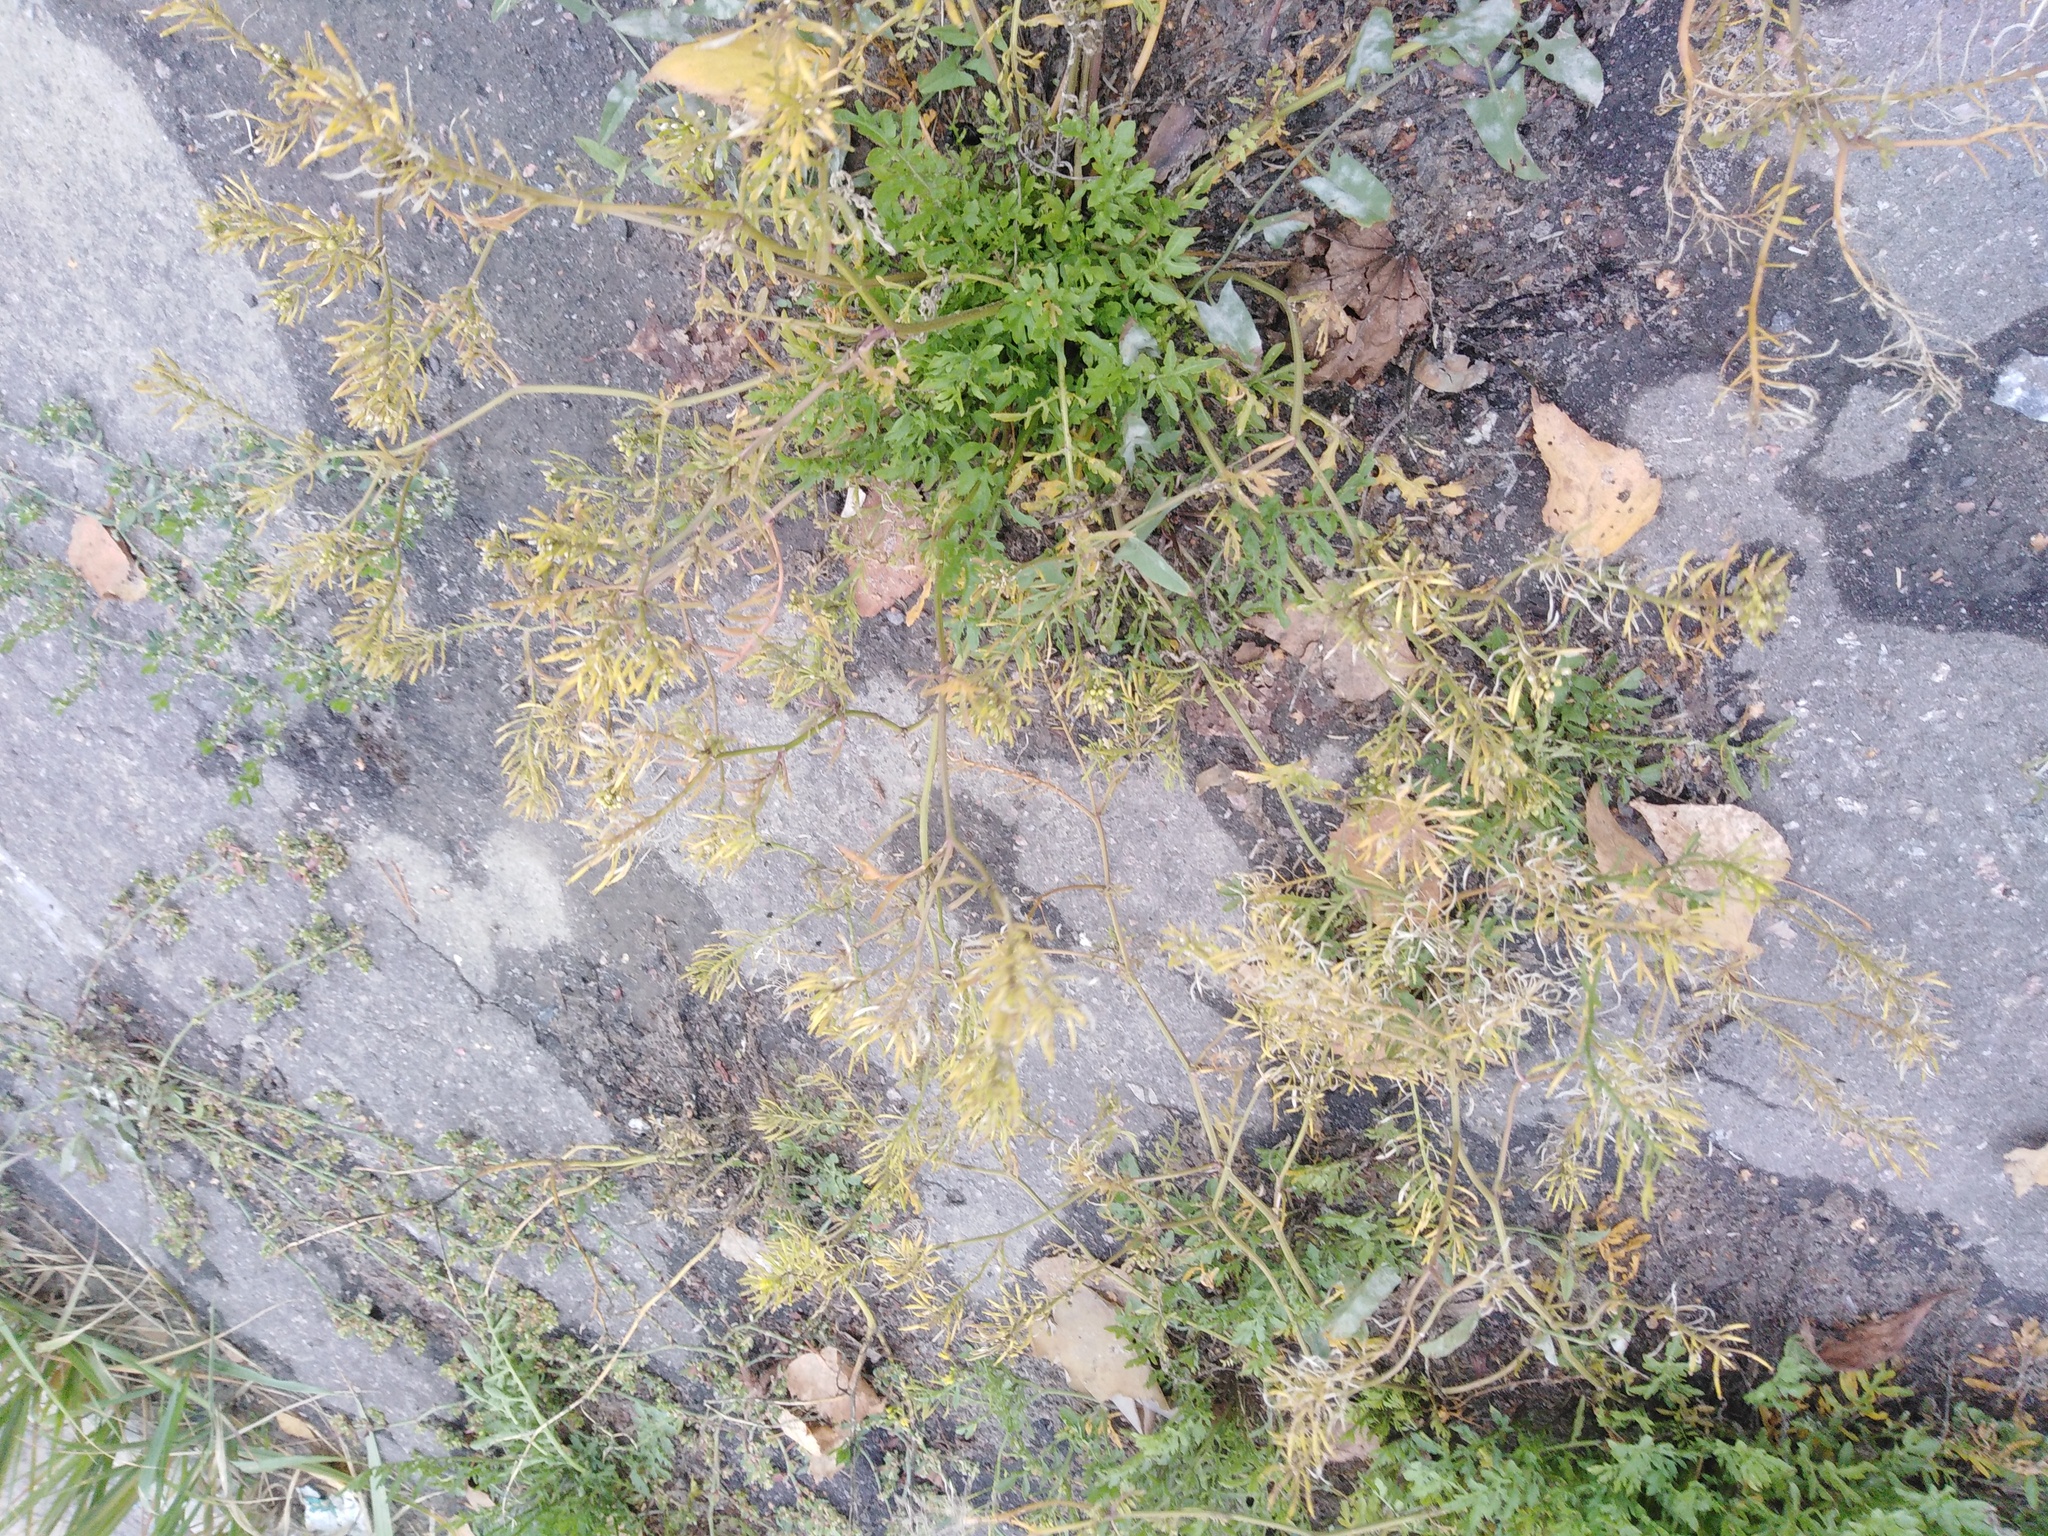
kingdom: Plantae
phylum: Tracheophyta
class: Magnoliopsida
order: Brassicales
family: Brassicaceae
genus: Rorippa
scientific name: Rorippa sylvestris
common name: Creeping yellowcress
